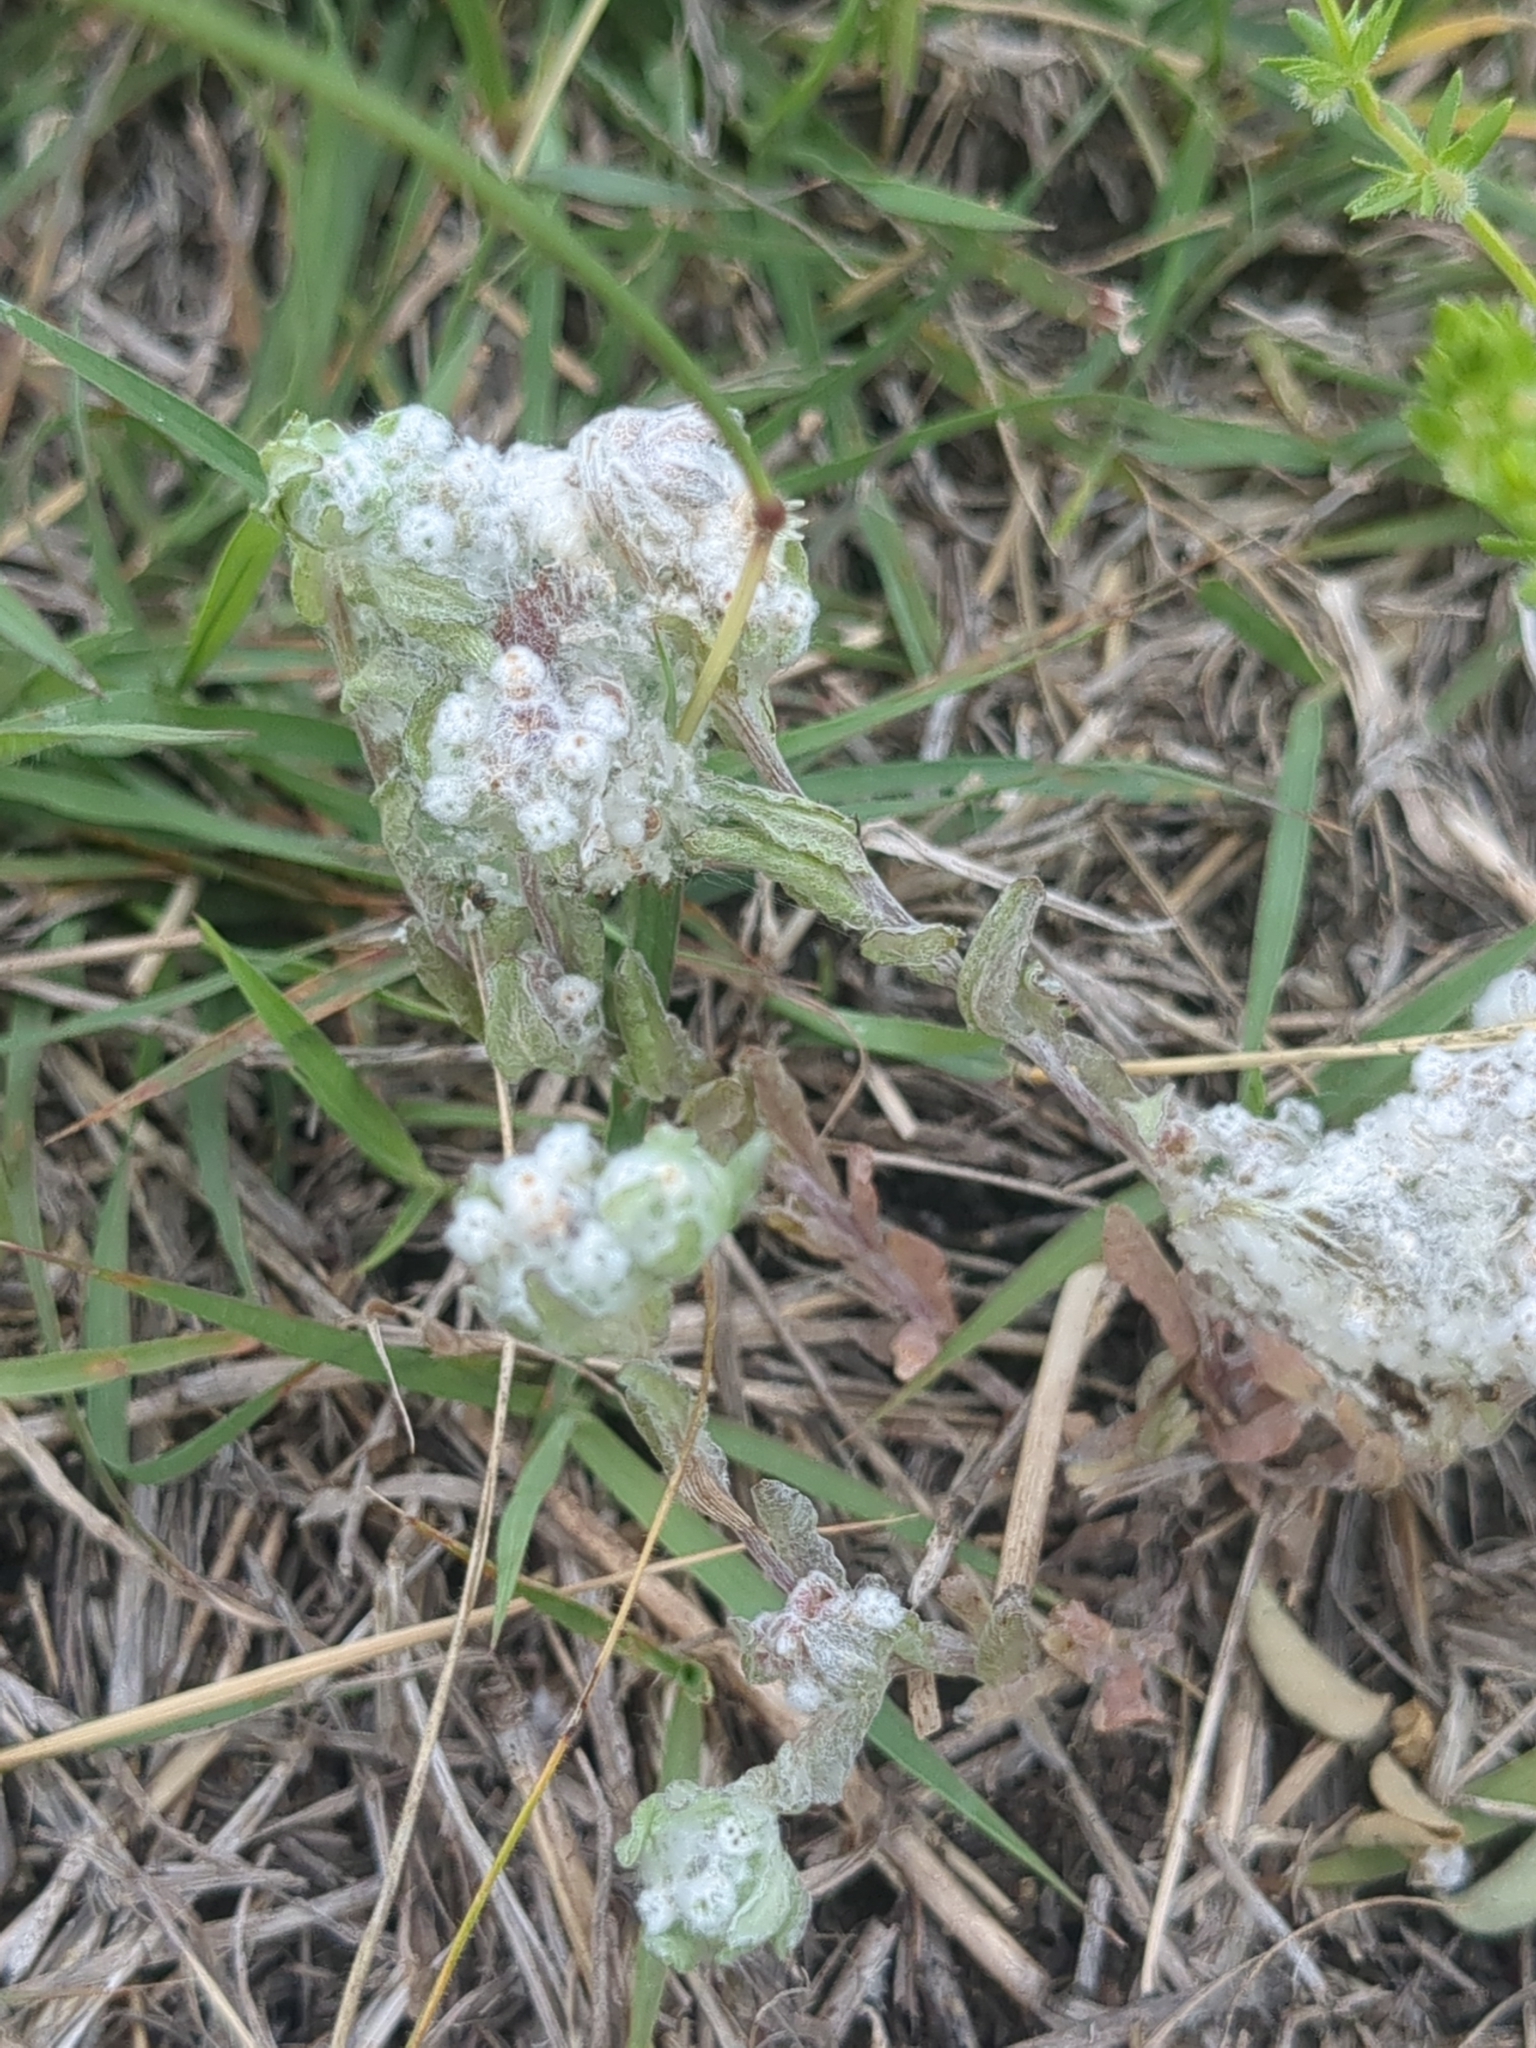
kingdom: Plantae
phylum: Tracheophyta
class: Magnoliopsida
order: Asterales
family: Asteraceae
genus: Diaperia
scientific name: Diaperia verna
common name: Many-stem rabbit-tobacco
